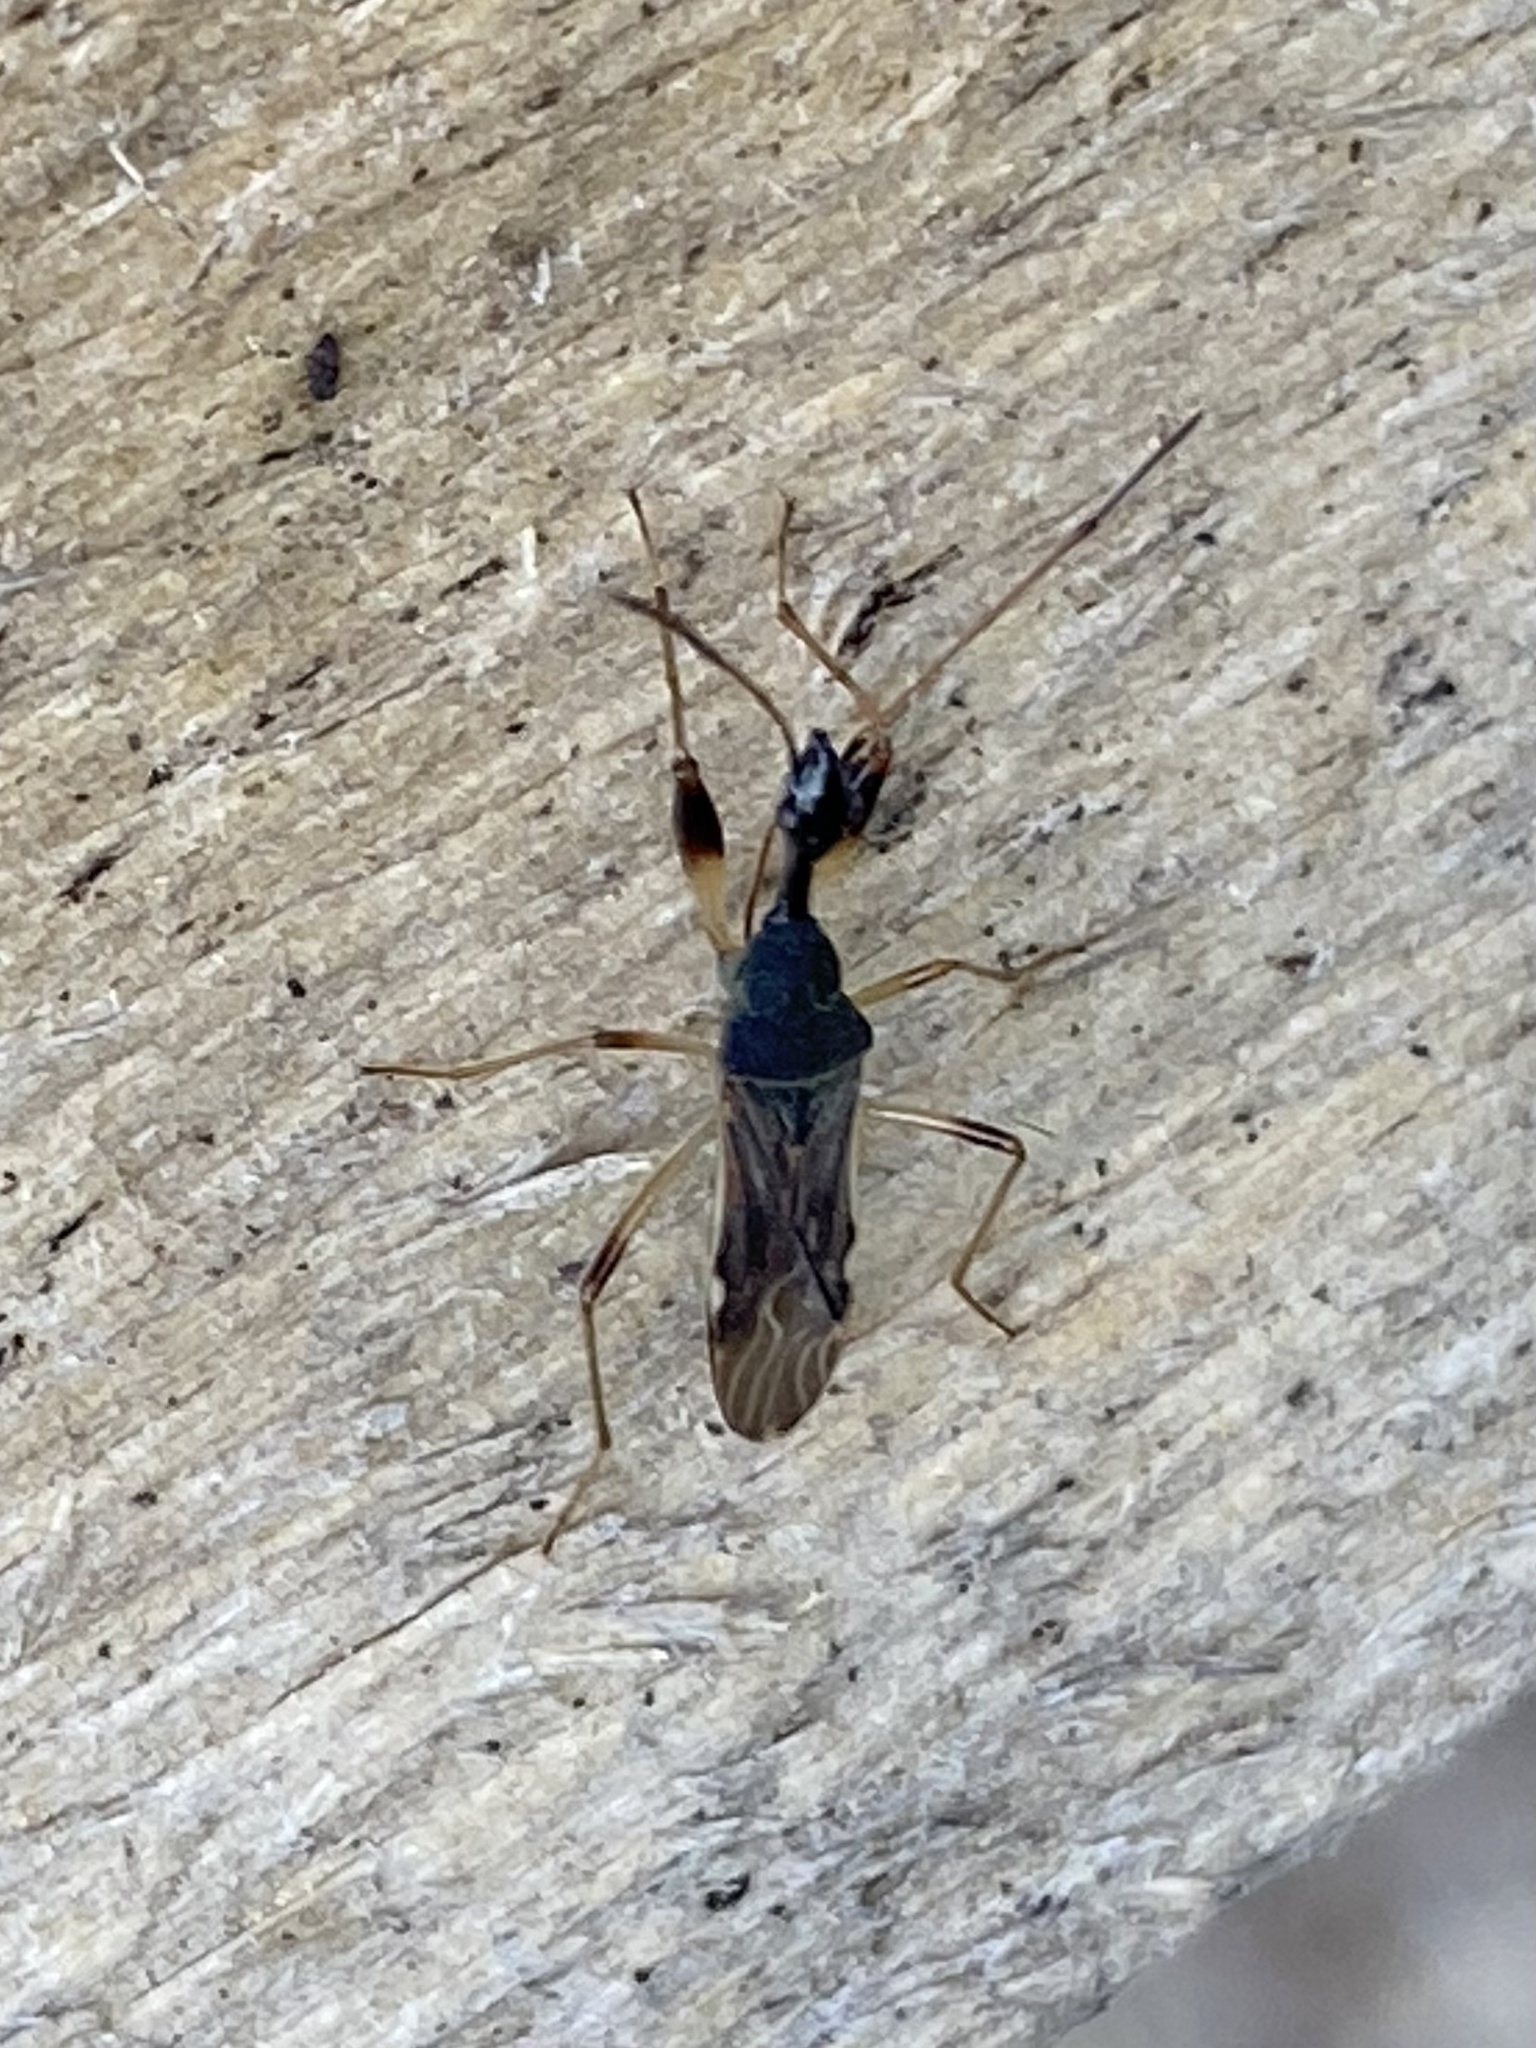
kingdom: Animalia
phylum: Arthropoda
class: Insecta
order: Hemiptera
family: Rhyparochromidae
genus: Myodocha
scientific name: Myodocha serripes
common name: Long-necked seed bug
